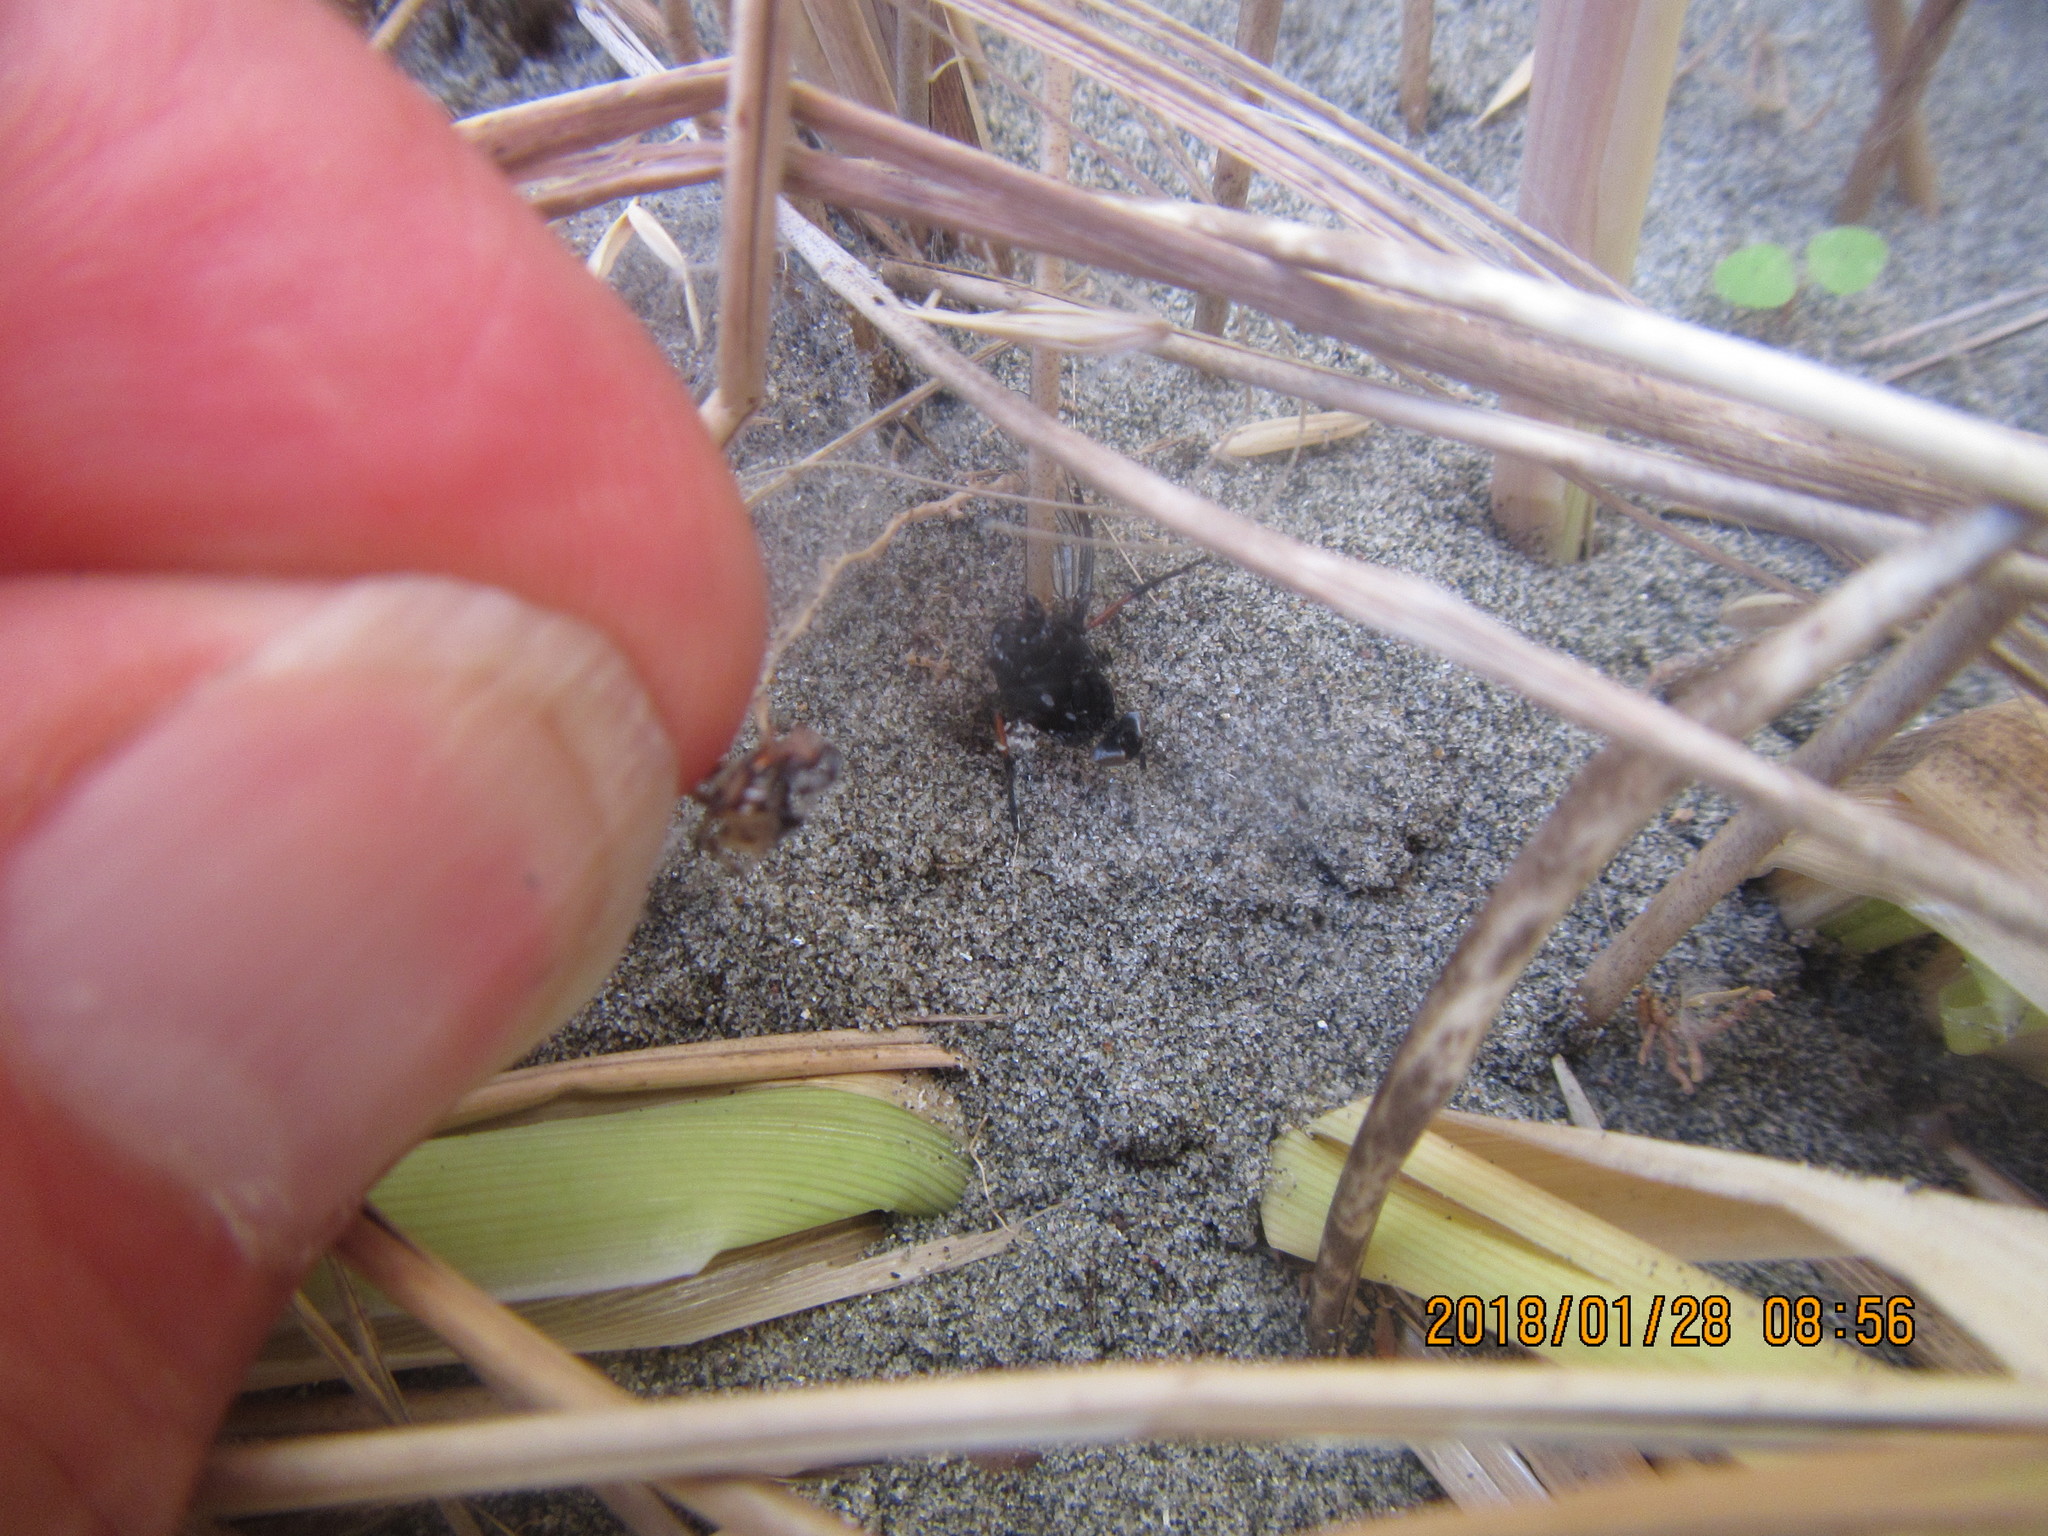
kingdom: Animalia
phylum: Arthropoda
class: Arachnida
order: Araneae
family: Theridiidae
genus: Latrodectus
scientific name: Latrodectus katipo
